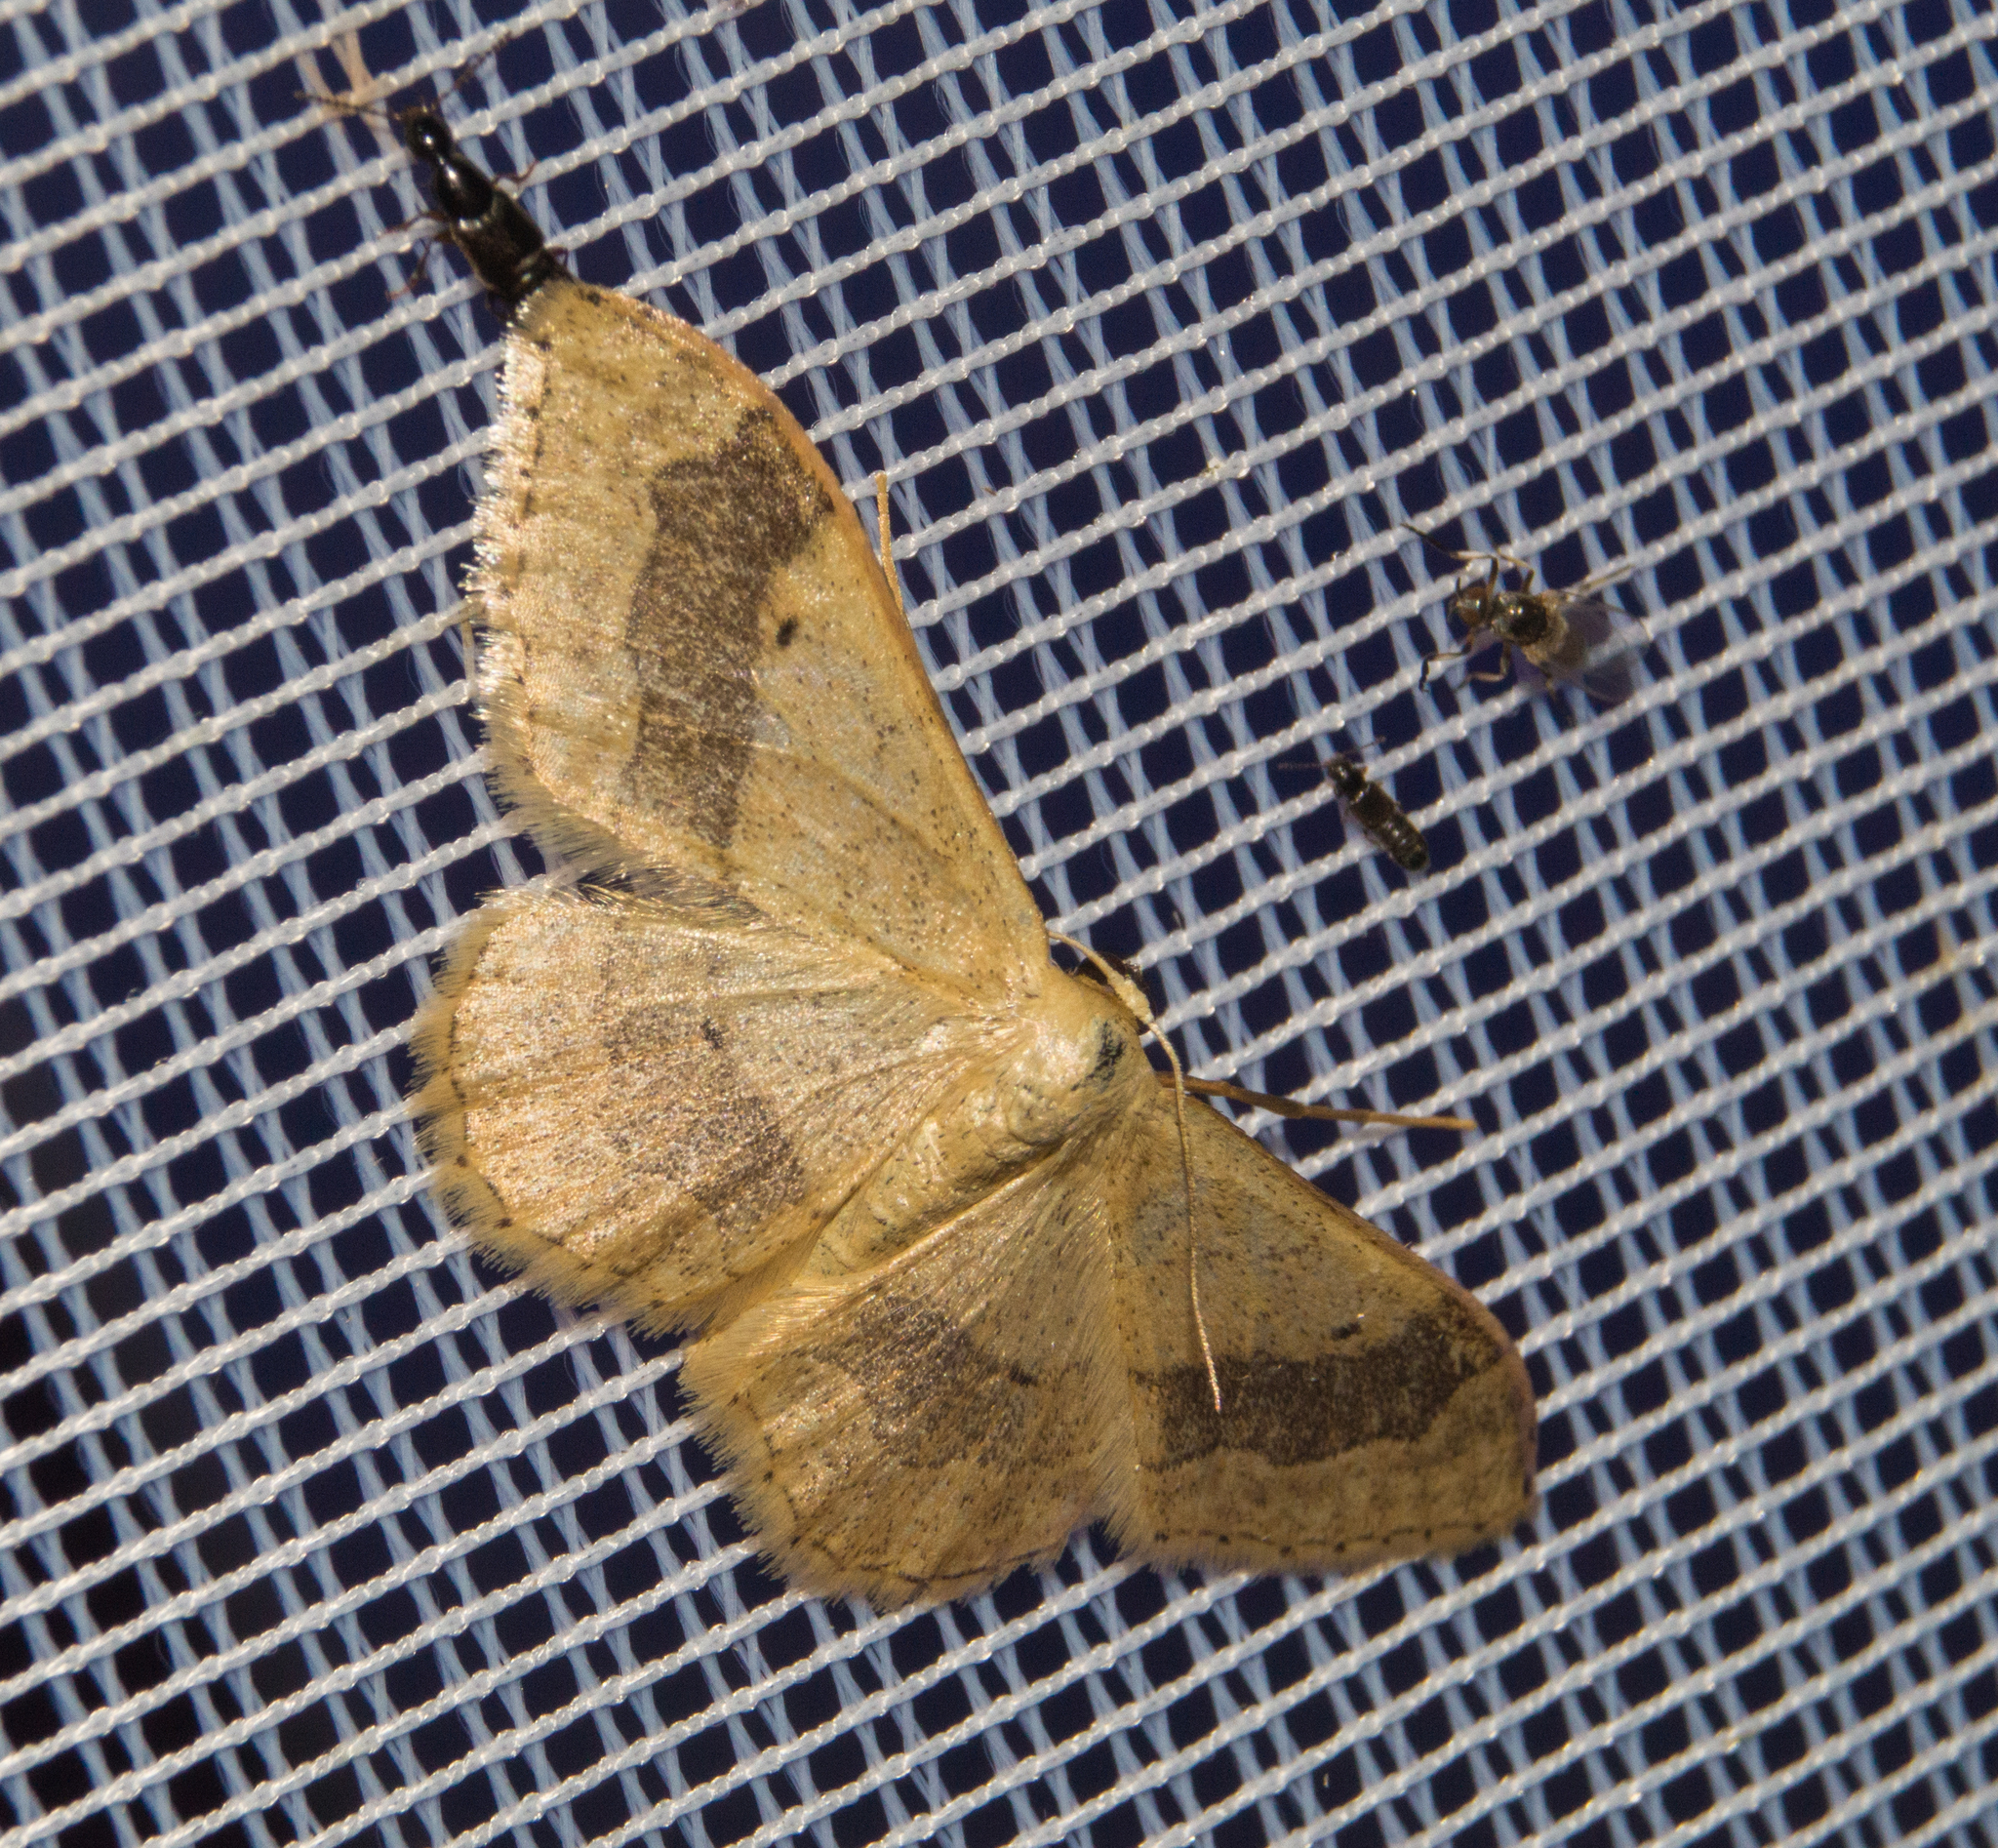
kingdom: Animalia
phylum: Arthropoda
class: Insecta
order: Lepidoptera
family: Geometridae
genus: Idaea
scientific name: Idaea aversata
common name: Riband wave
